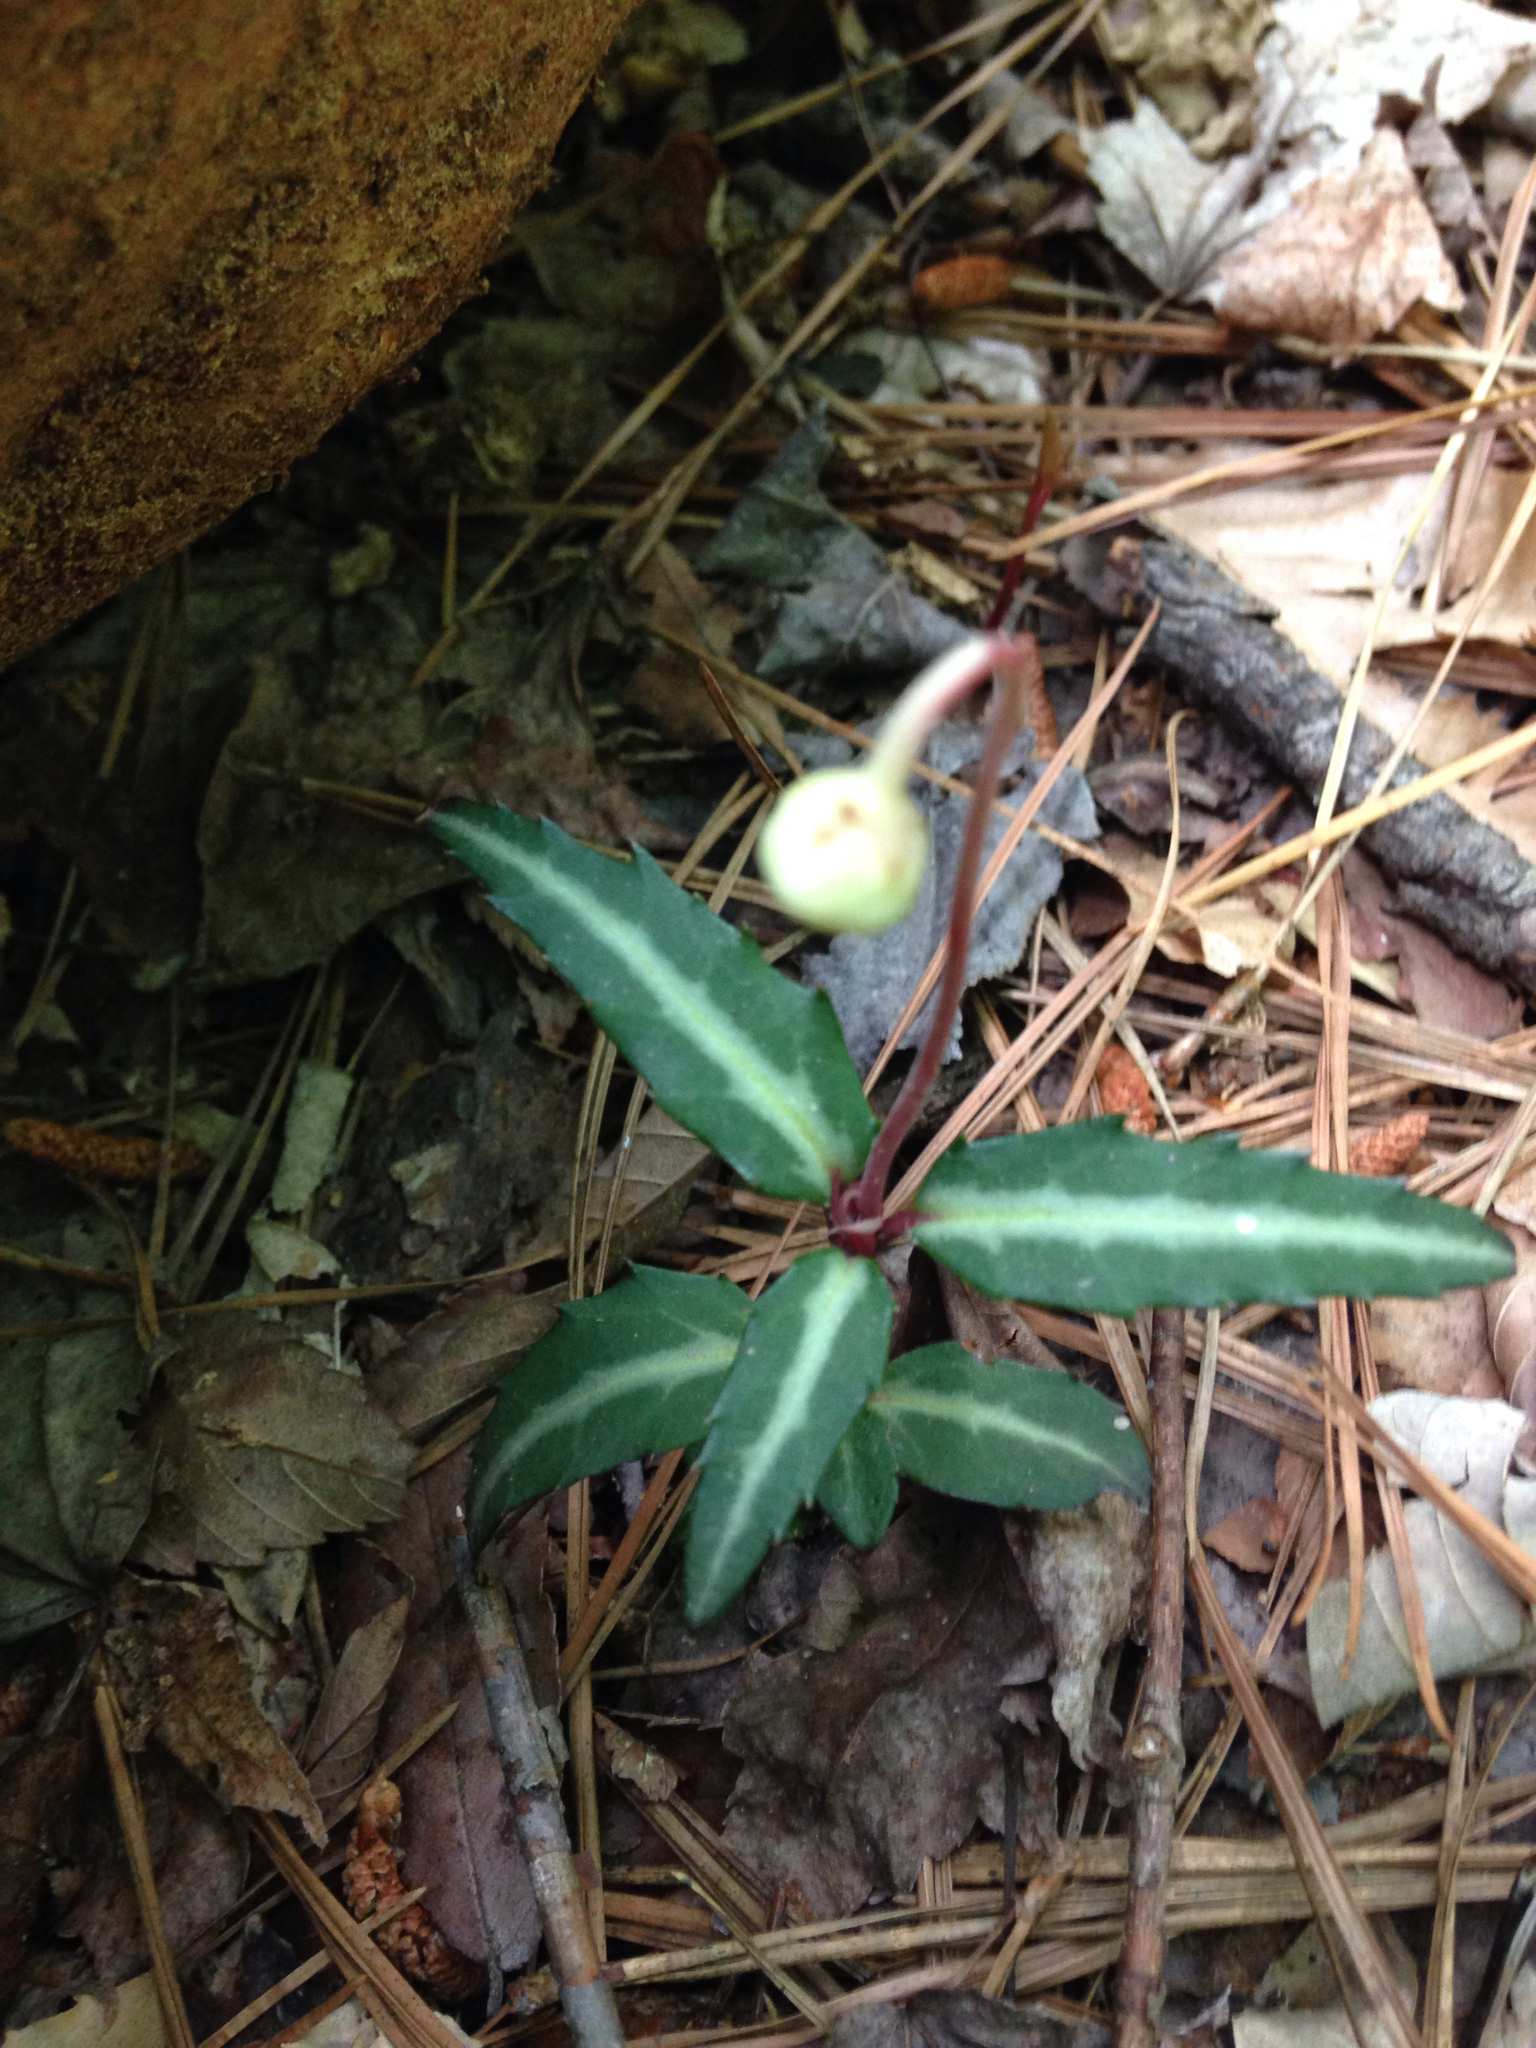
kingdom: Plantae
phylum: Tracheophyta
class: Magnoliopsida
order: Ericales
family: Ericaceae
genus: Chimaphila
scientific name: Chimaphila maculata
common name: Spotted pipsissewa
